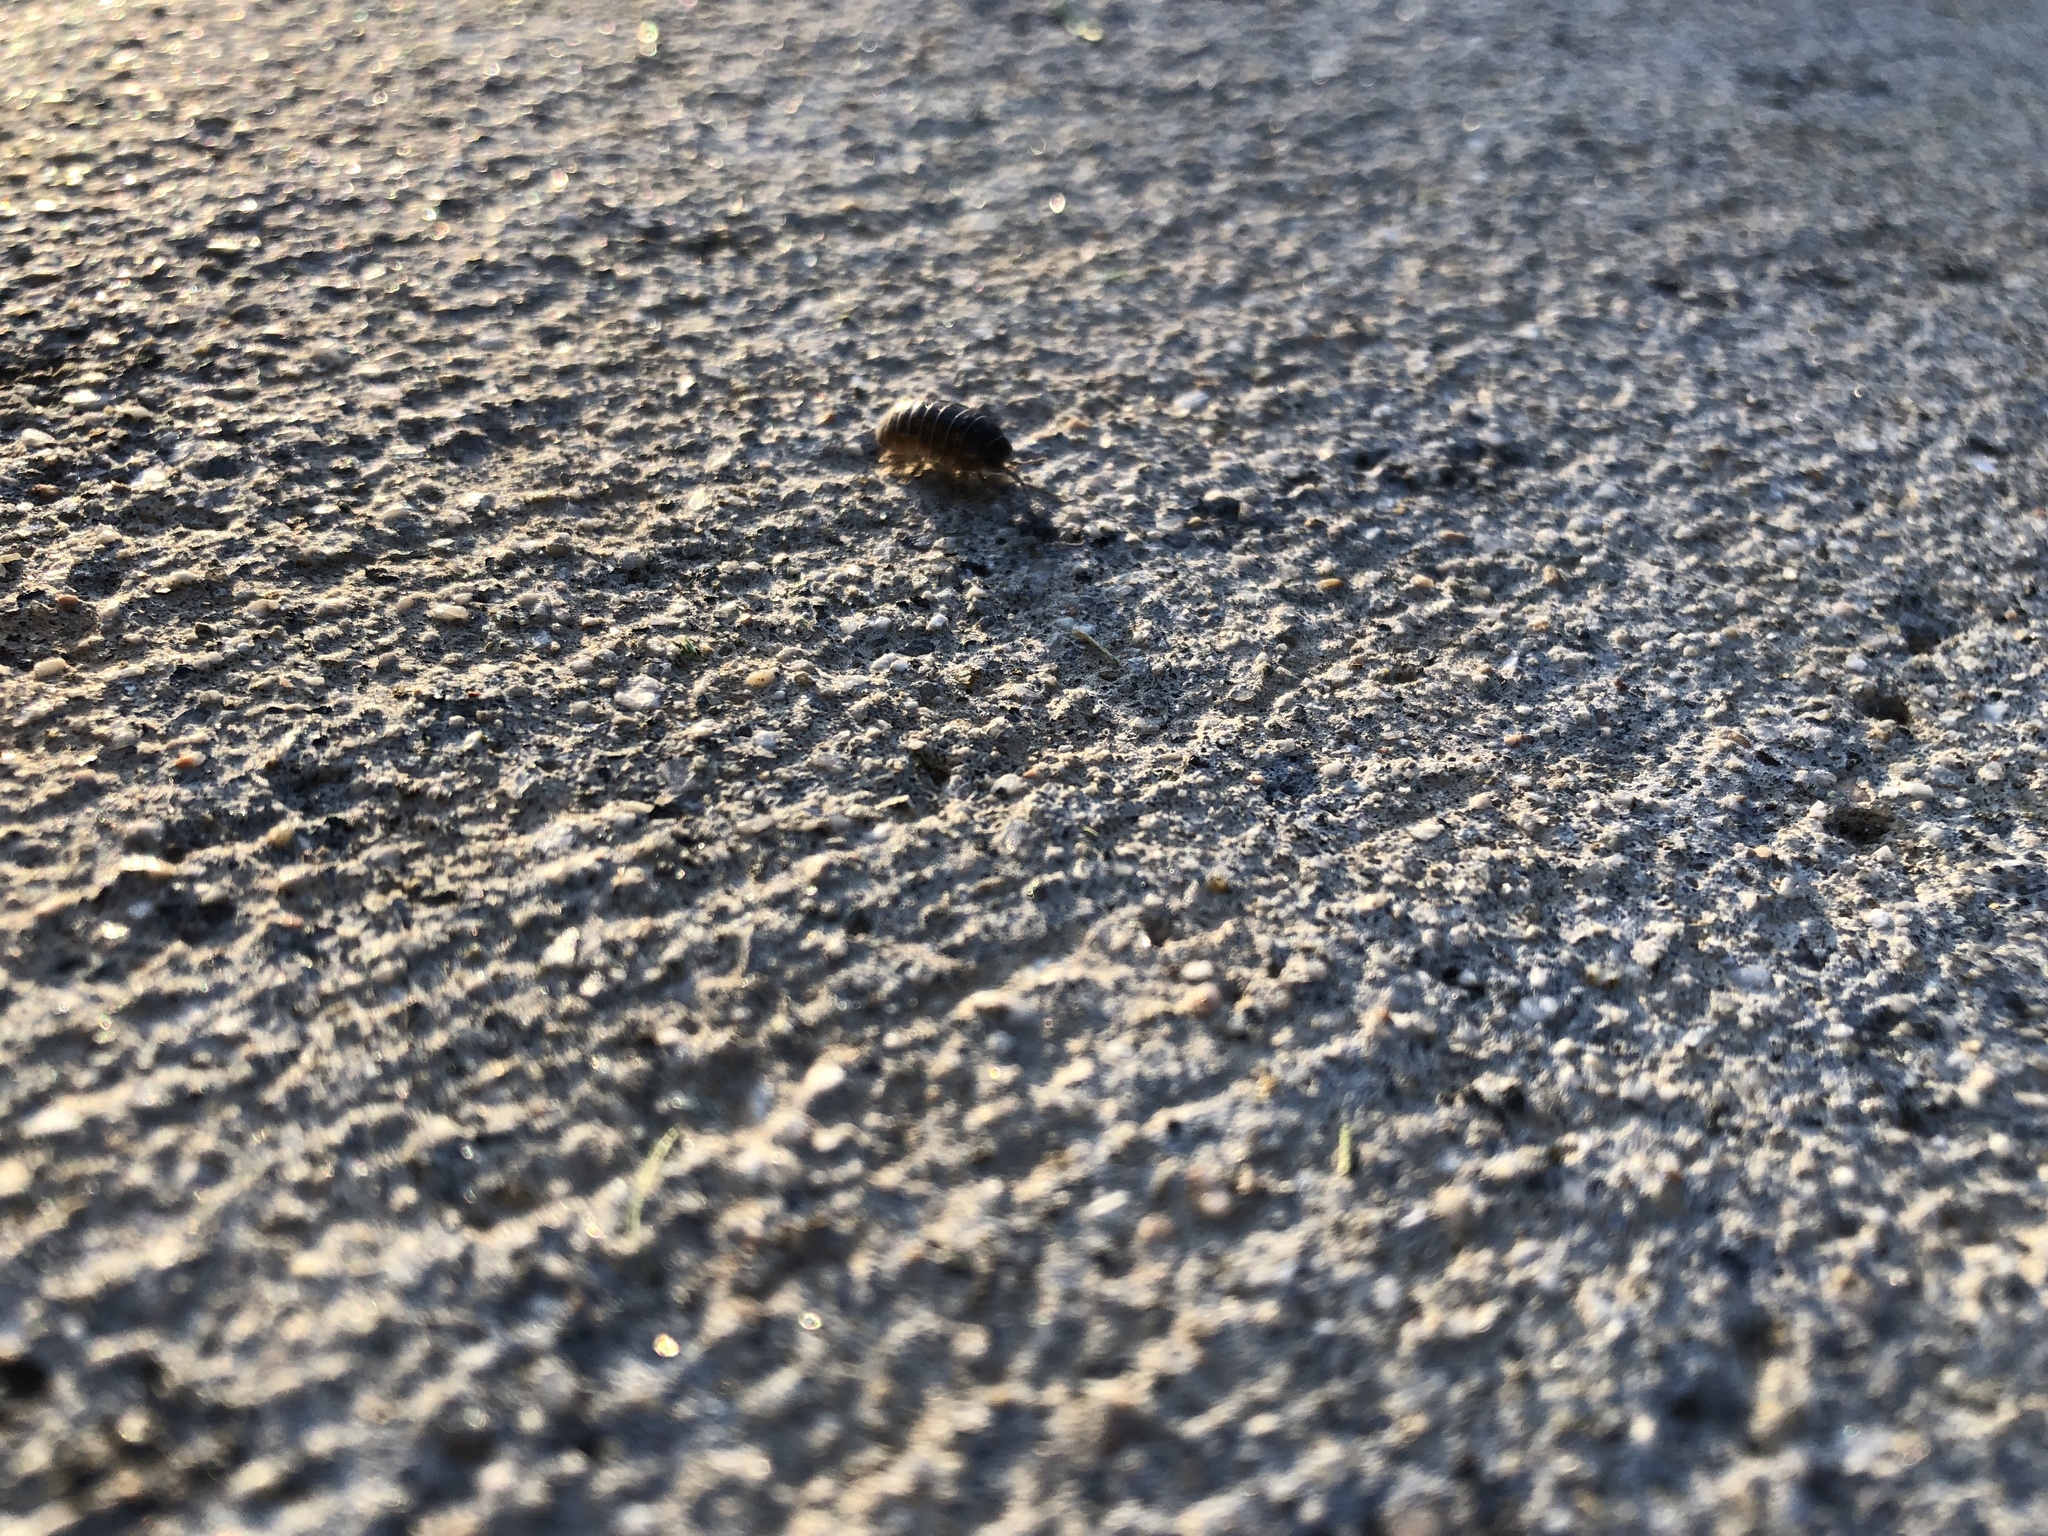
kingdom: Animalia
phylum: Arthropoda
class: Malacostraca
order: Isopoda
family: Armadillidiidae
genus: Armadillidium
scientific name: Armadillidium vulgare
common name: Common pill woodlouse
